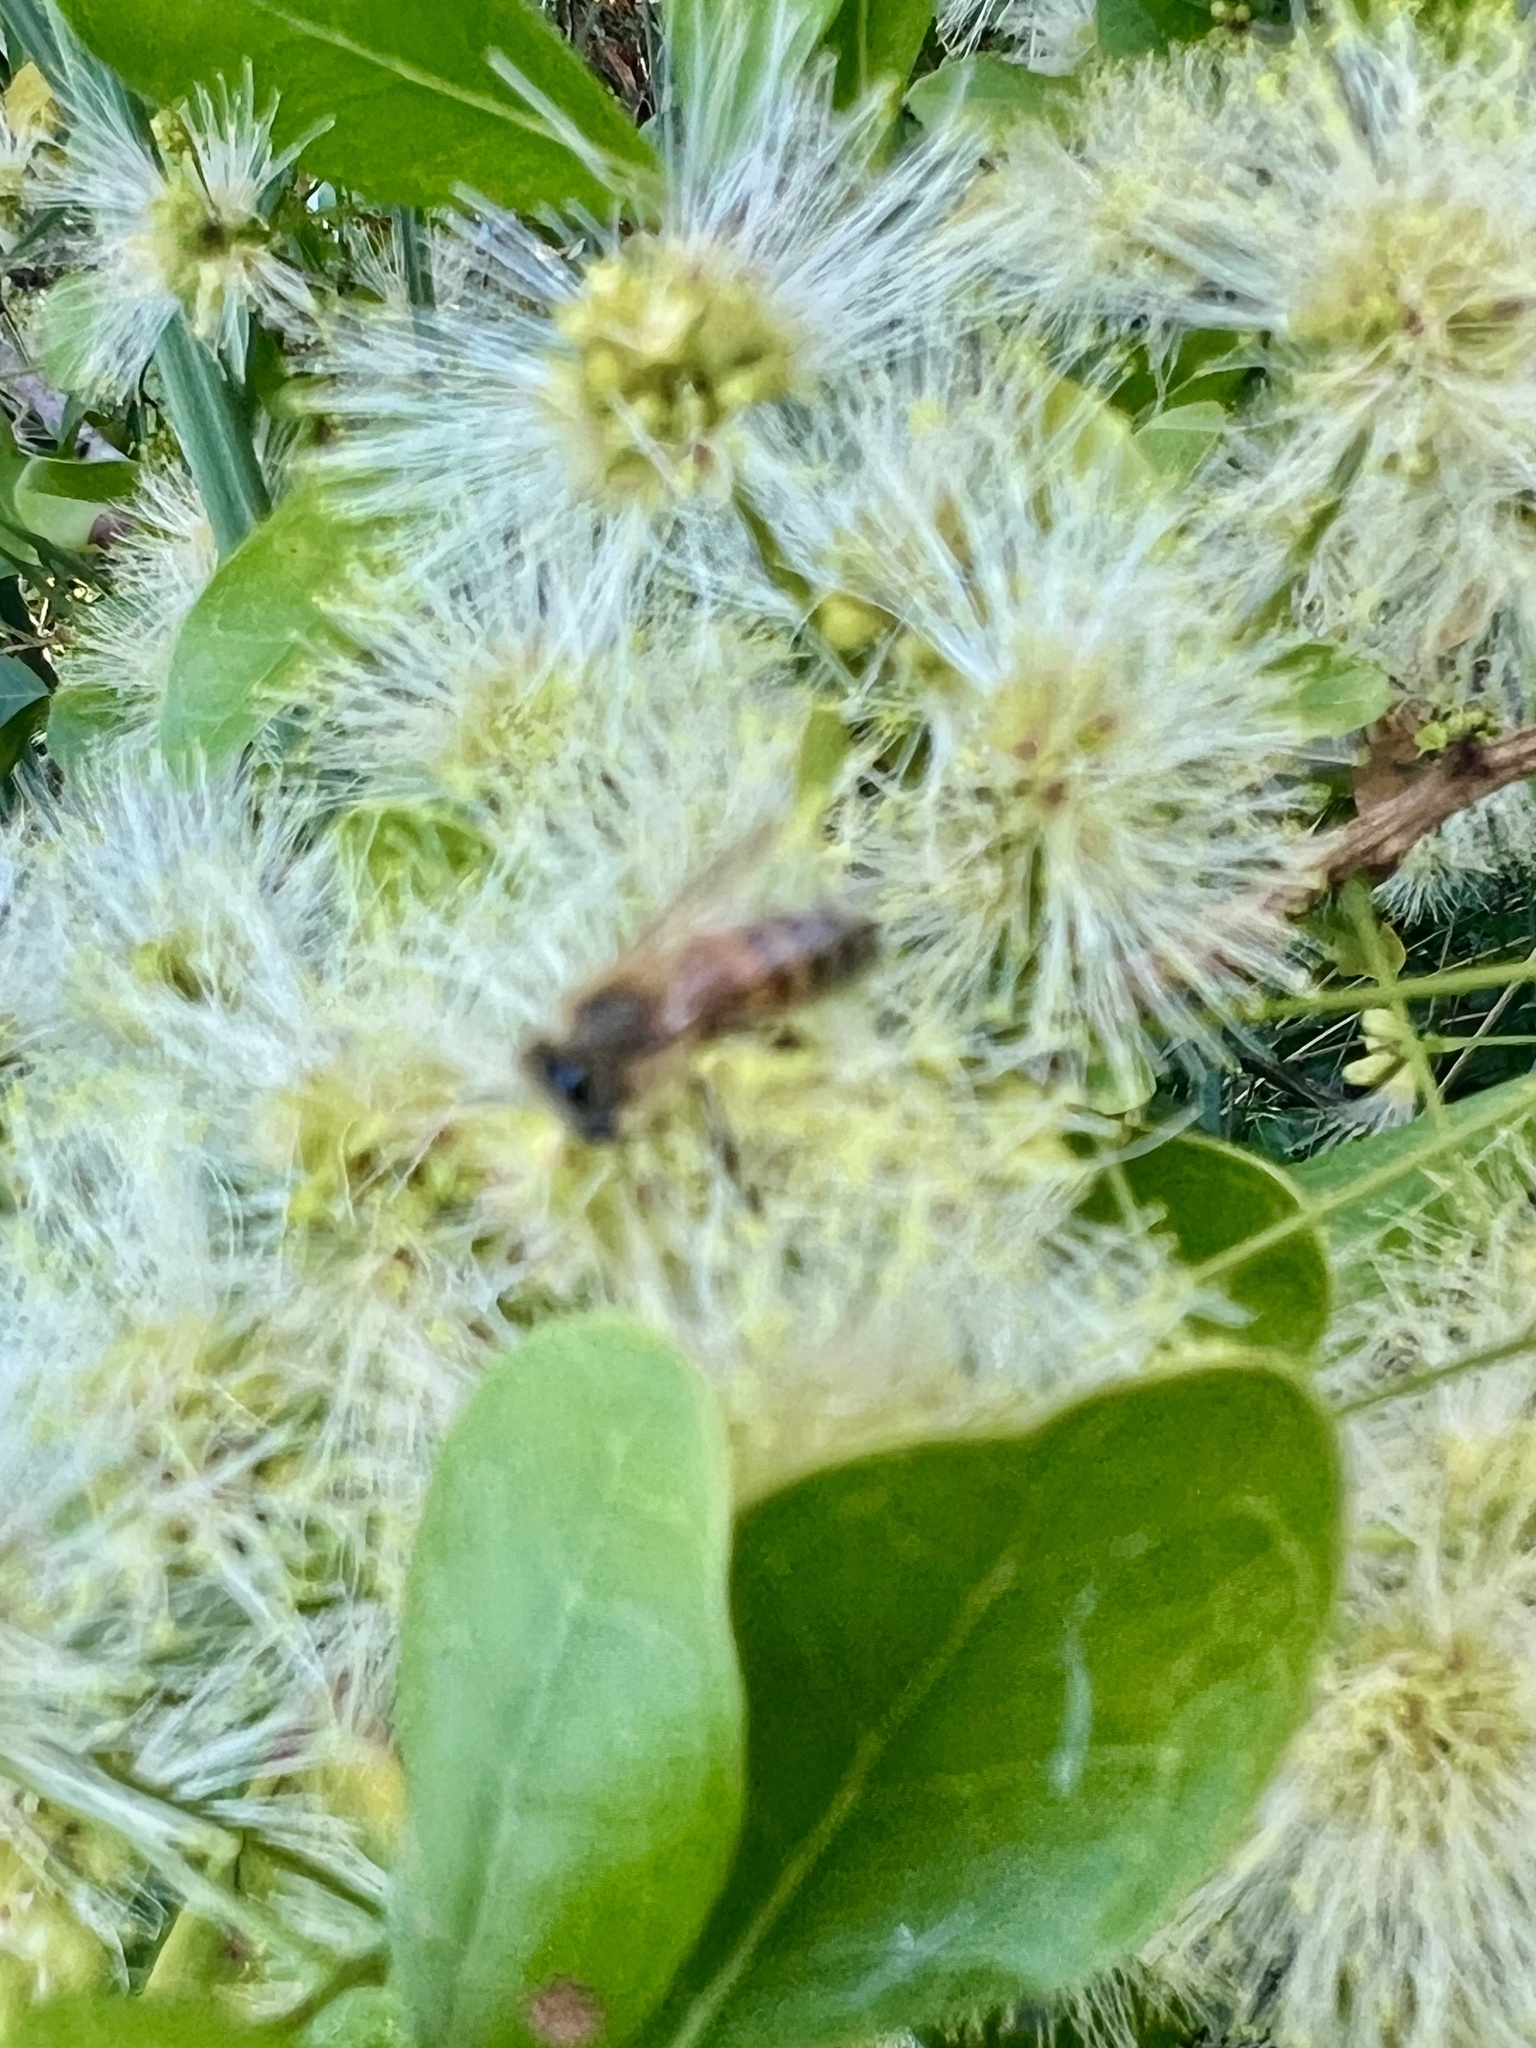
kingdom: Animalia
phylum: Arthropoda
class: Insecta
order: Hymenoptera
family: Apidae
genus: Apis
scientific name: Apis mellifera
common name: Honey bee
